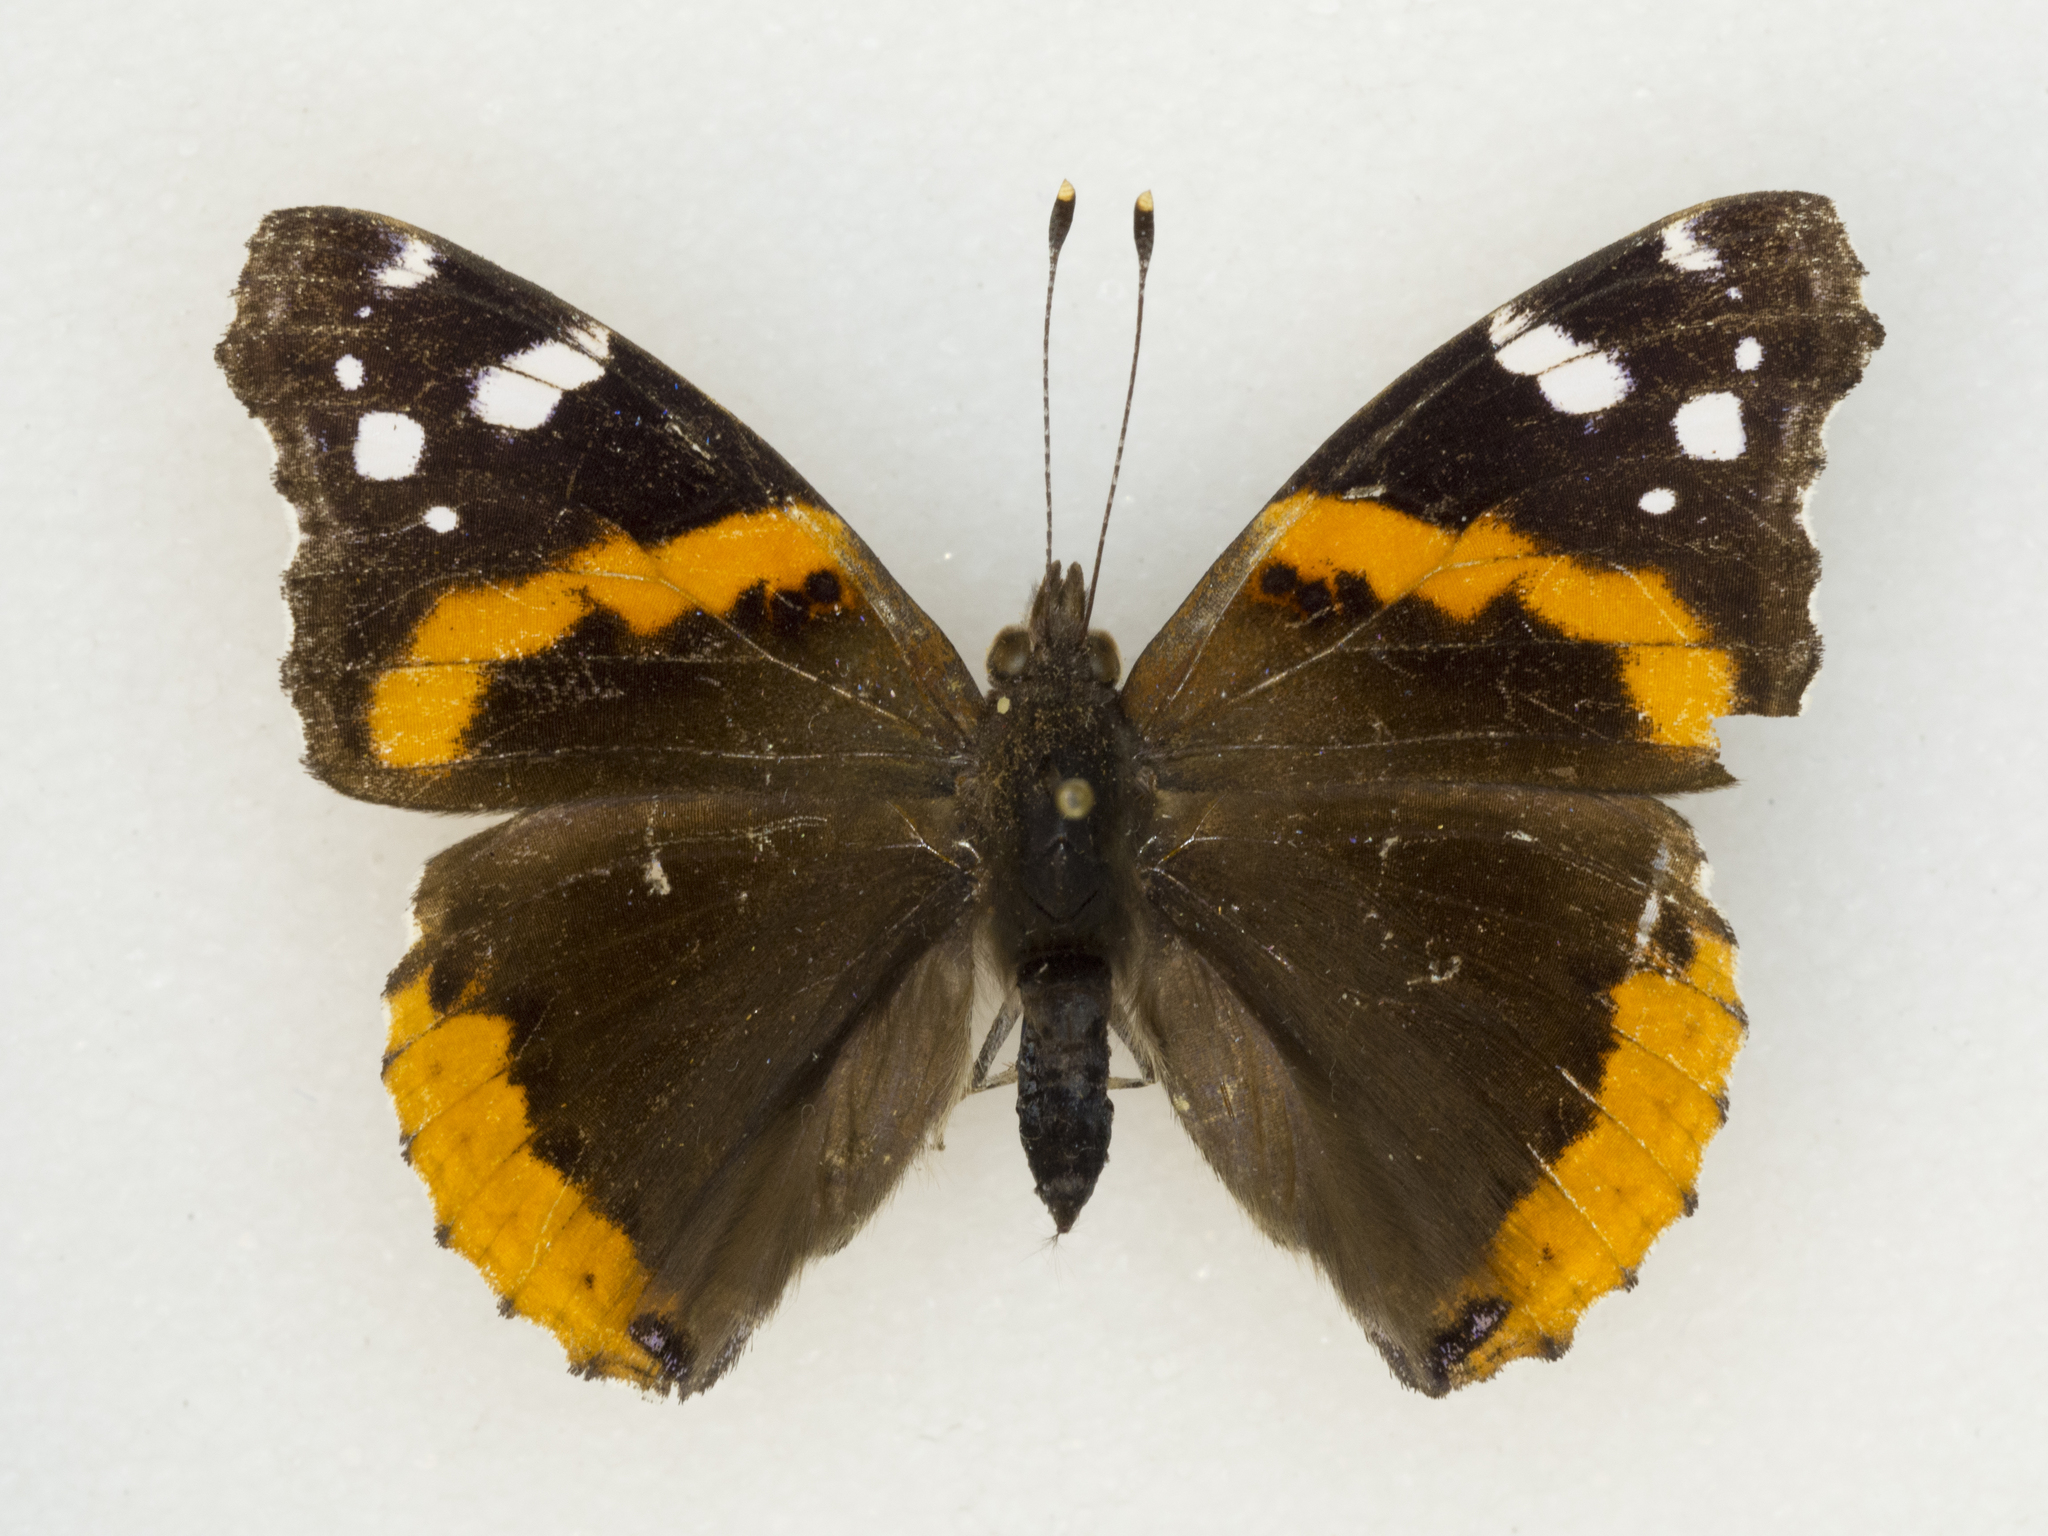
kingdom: Animalia
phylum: Arthropoda
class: Insecta
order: Lepidoptera
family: Nymphalidae
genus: Vanessa
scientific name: Vanessa atalanta
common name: Red admiral
